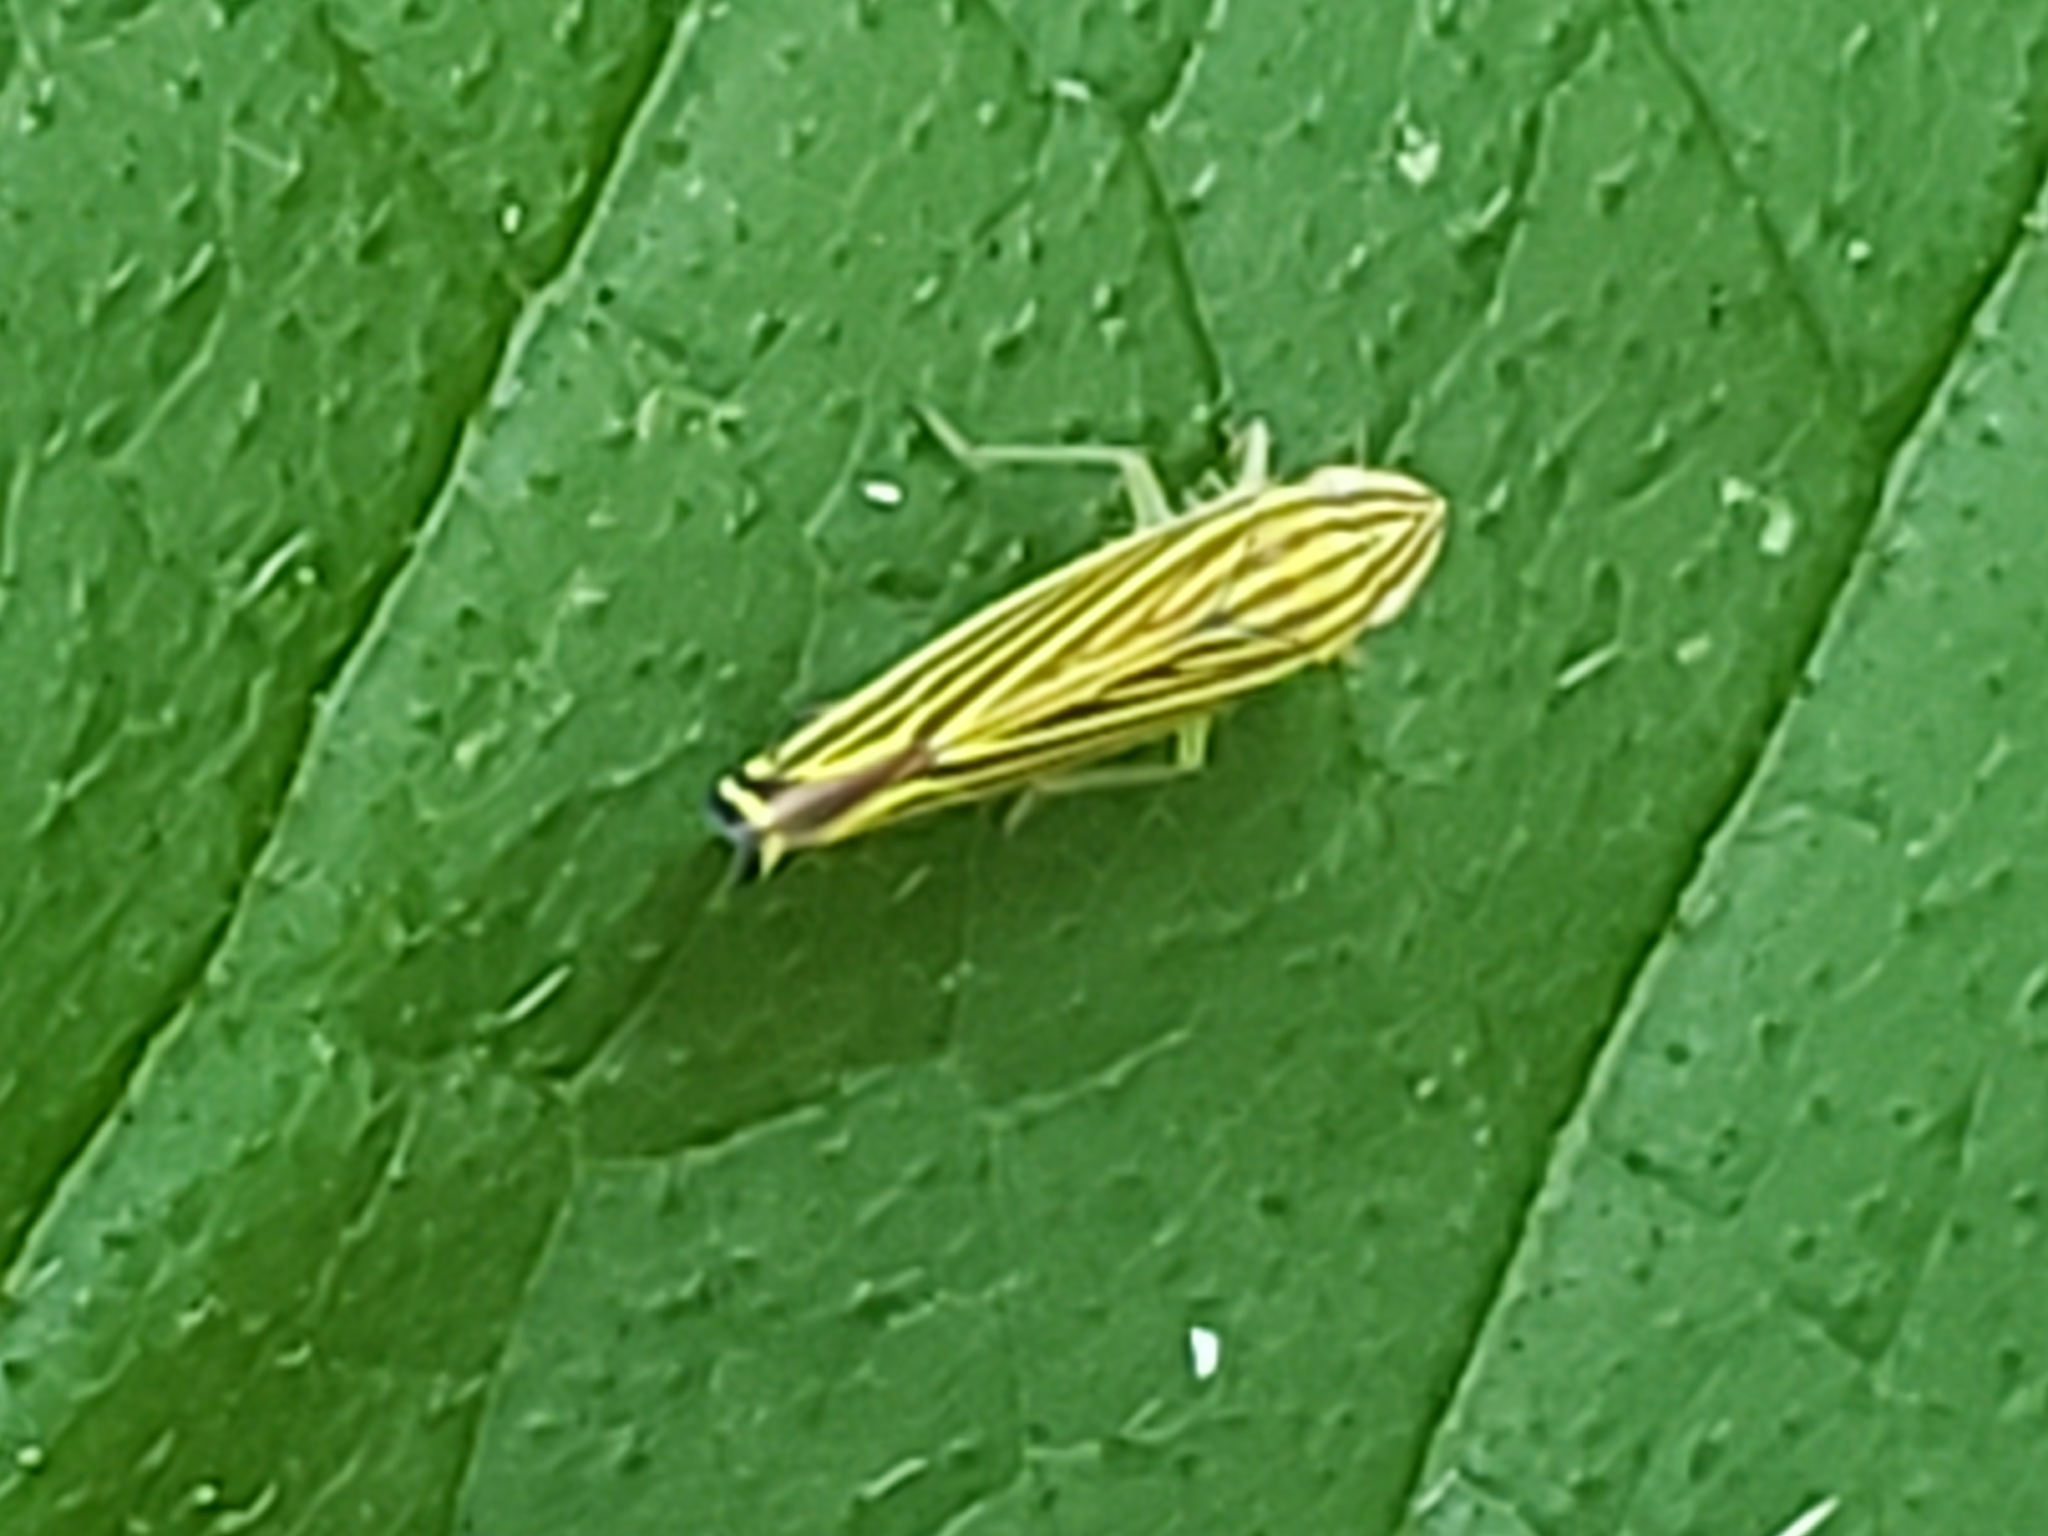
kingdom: Animalia
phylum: Arthropoda
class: Insecta
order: Hemiptera
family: Cicadellidae
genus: Sibovia
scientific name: Sibovia occatoria
